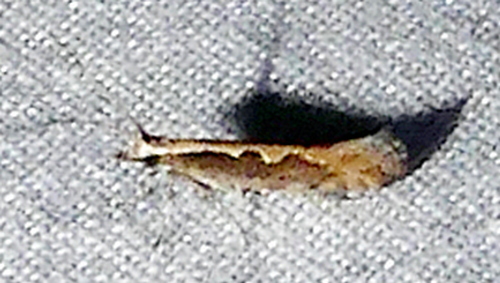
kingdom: Animalia
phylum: Arthropoda
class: Insecta
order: Lepidoptera
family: Plutellidae
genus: Plutella
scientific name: Plutella xylostella
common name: Diamond-back moth
